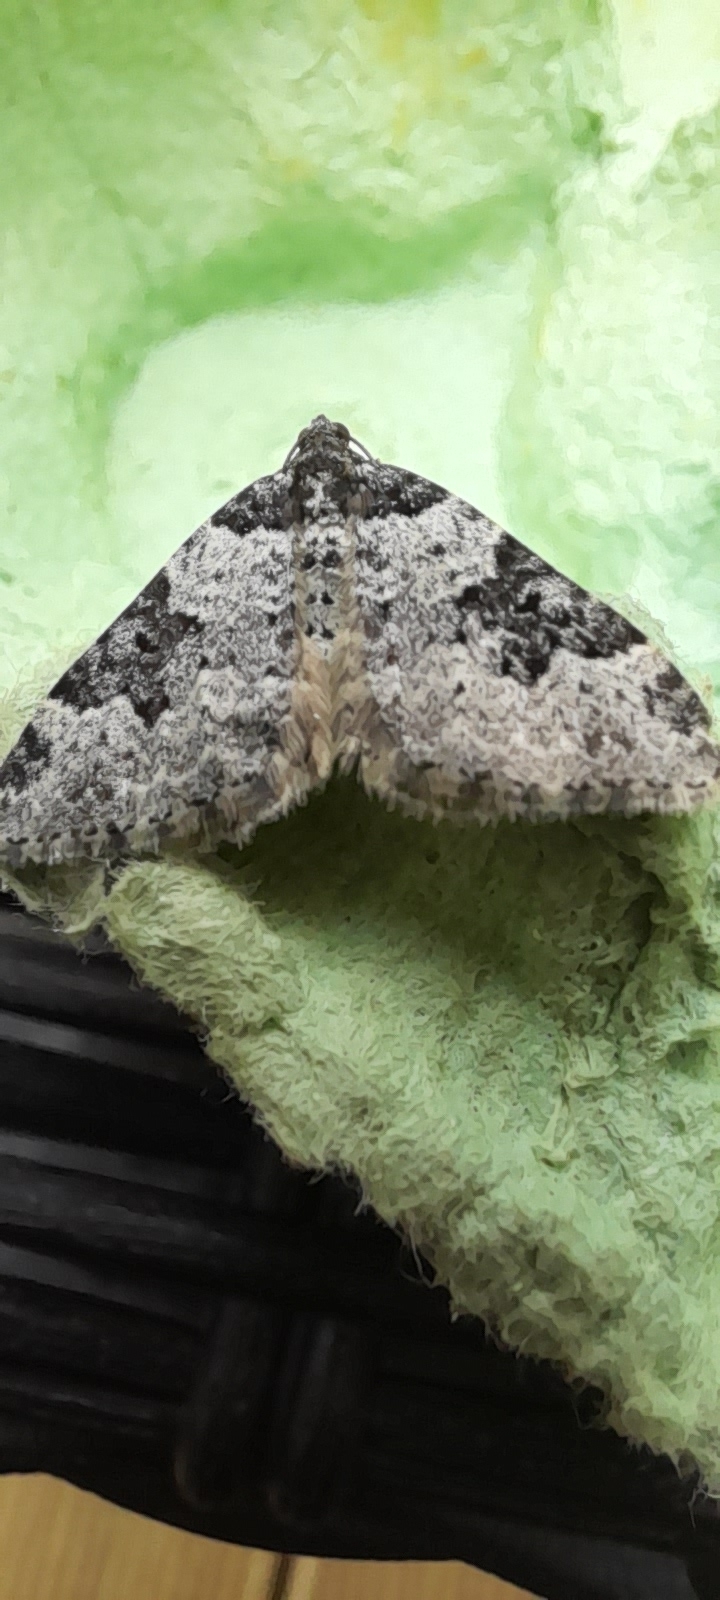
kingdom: Animalia
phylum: Arthropoda
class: Insecta
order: Lepidoptera
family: Geometridae
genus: Xanthorhoe
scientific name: Xanthorhoe fluctuata
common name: Garden carpet
